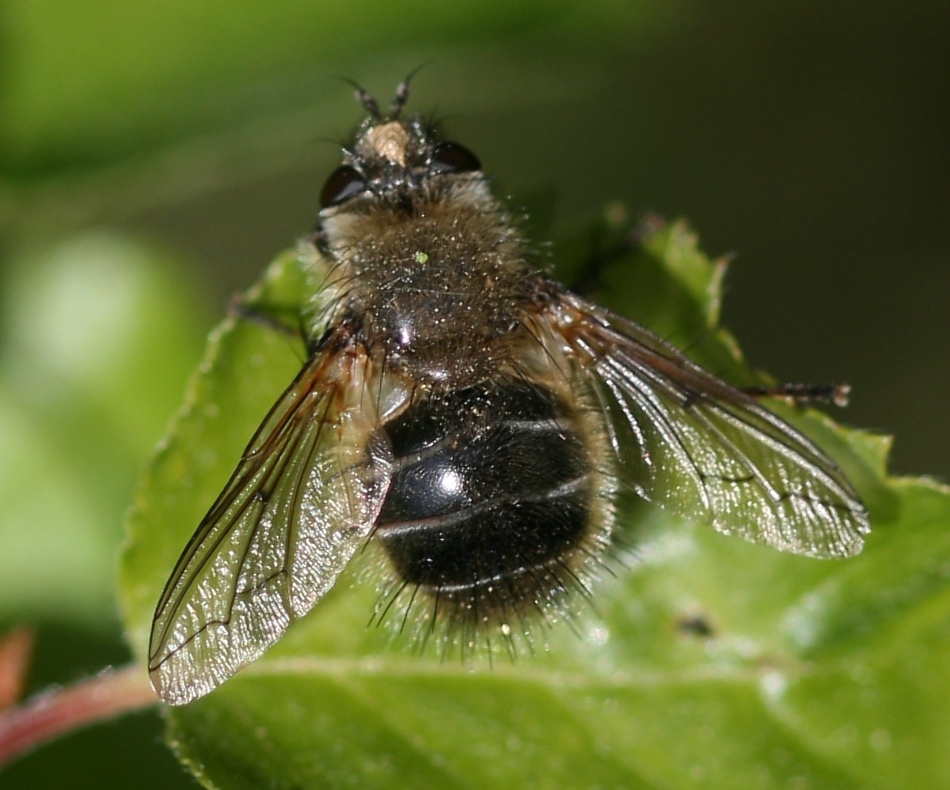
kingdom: Animalia
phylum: Arthropoda
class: Insecta
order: Diptera
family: Tachinidae
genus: Tachina
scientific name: Tachina ursina
